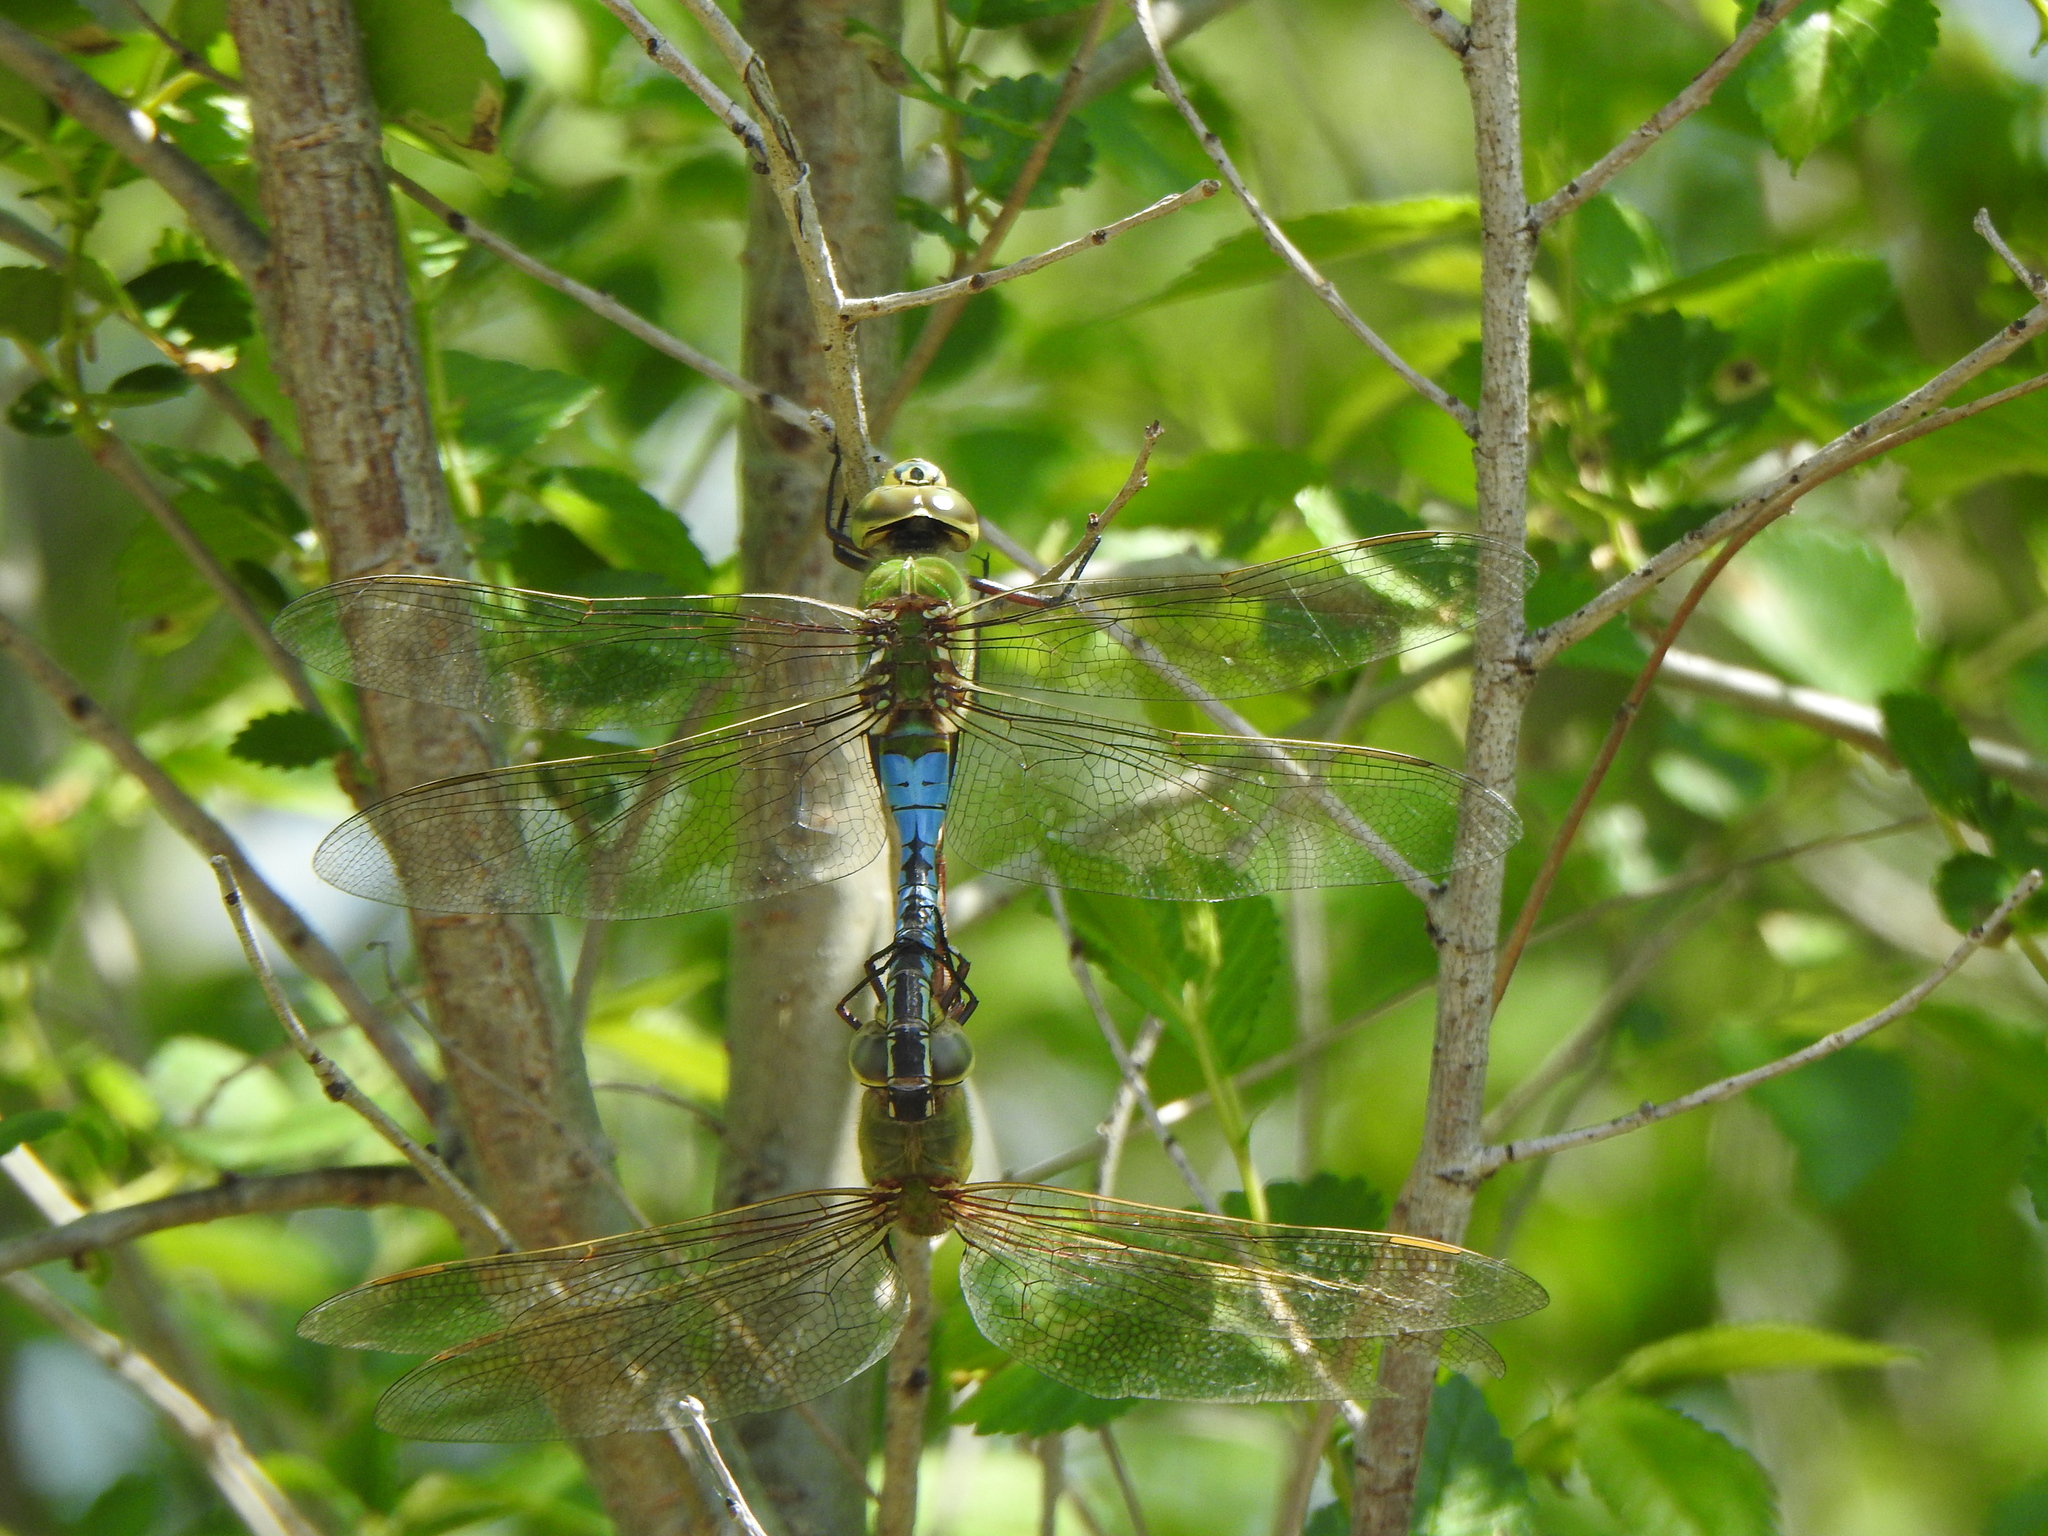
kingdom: Animalia
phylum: Arthropoda
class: Insecta
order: Odonata
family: Aeshnidae
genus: Anax
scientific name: Anax junius
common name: Common green darner
